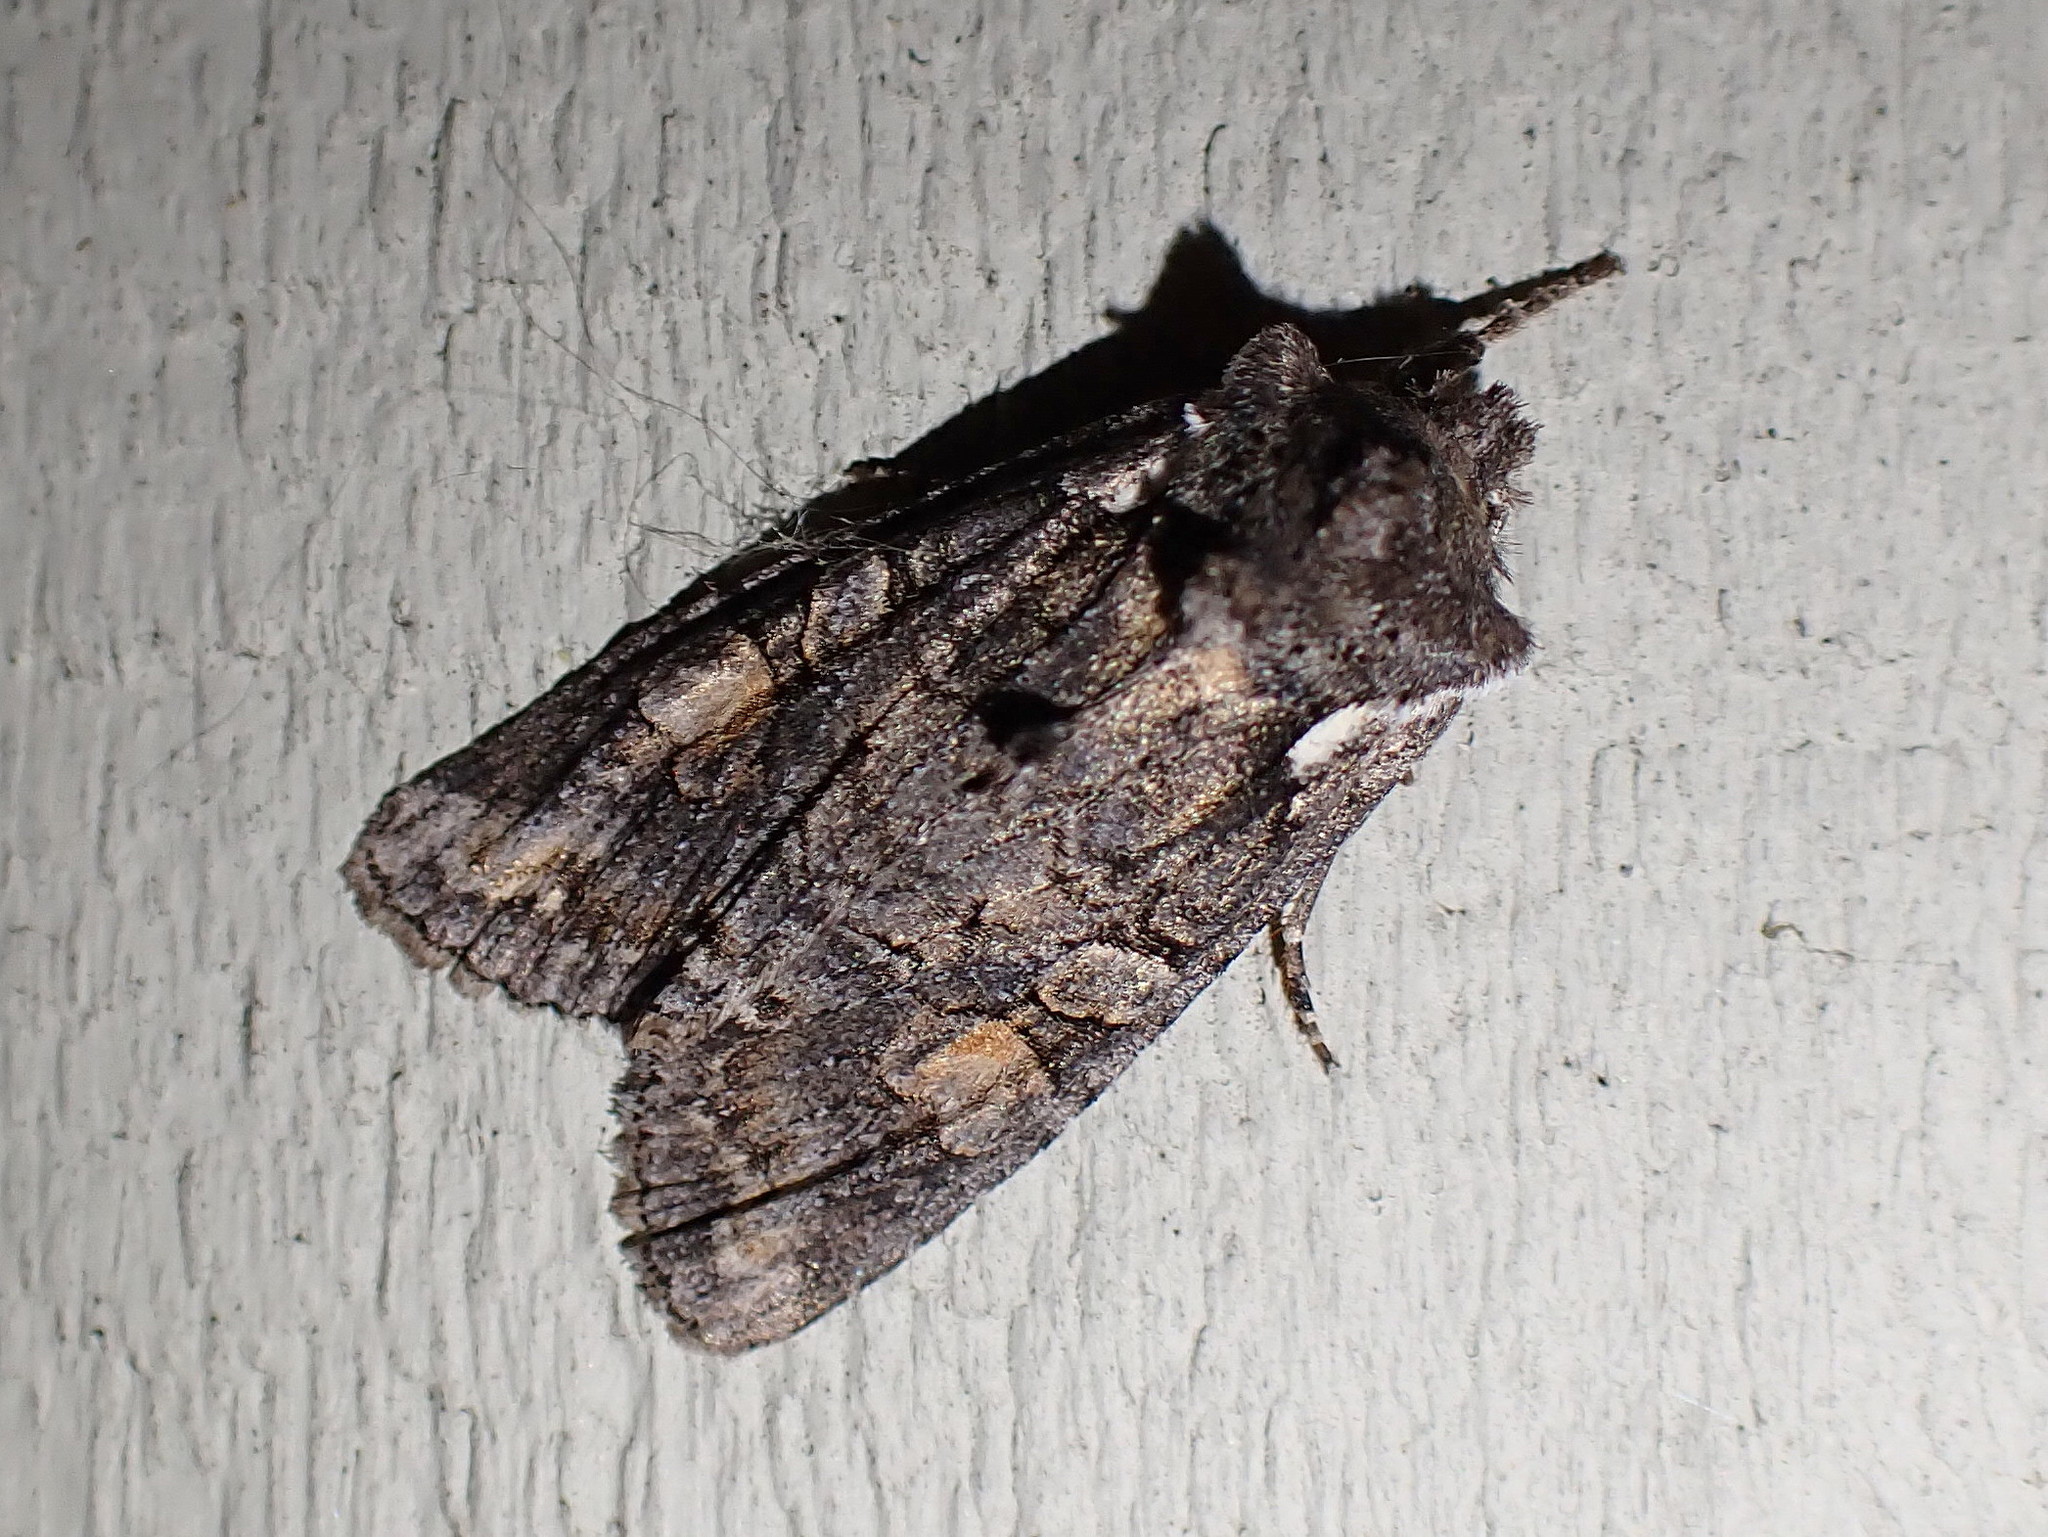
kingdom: Animalia
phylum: Arthropoda
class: Insecta
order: Lepidoptera
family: Noctuidae
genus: Lithophane
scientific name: Lithophane pexata
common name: Plush-naped pinion moth
